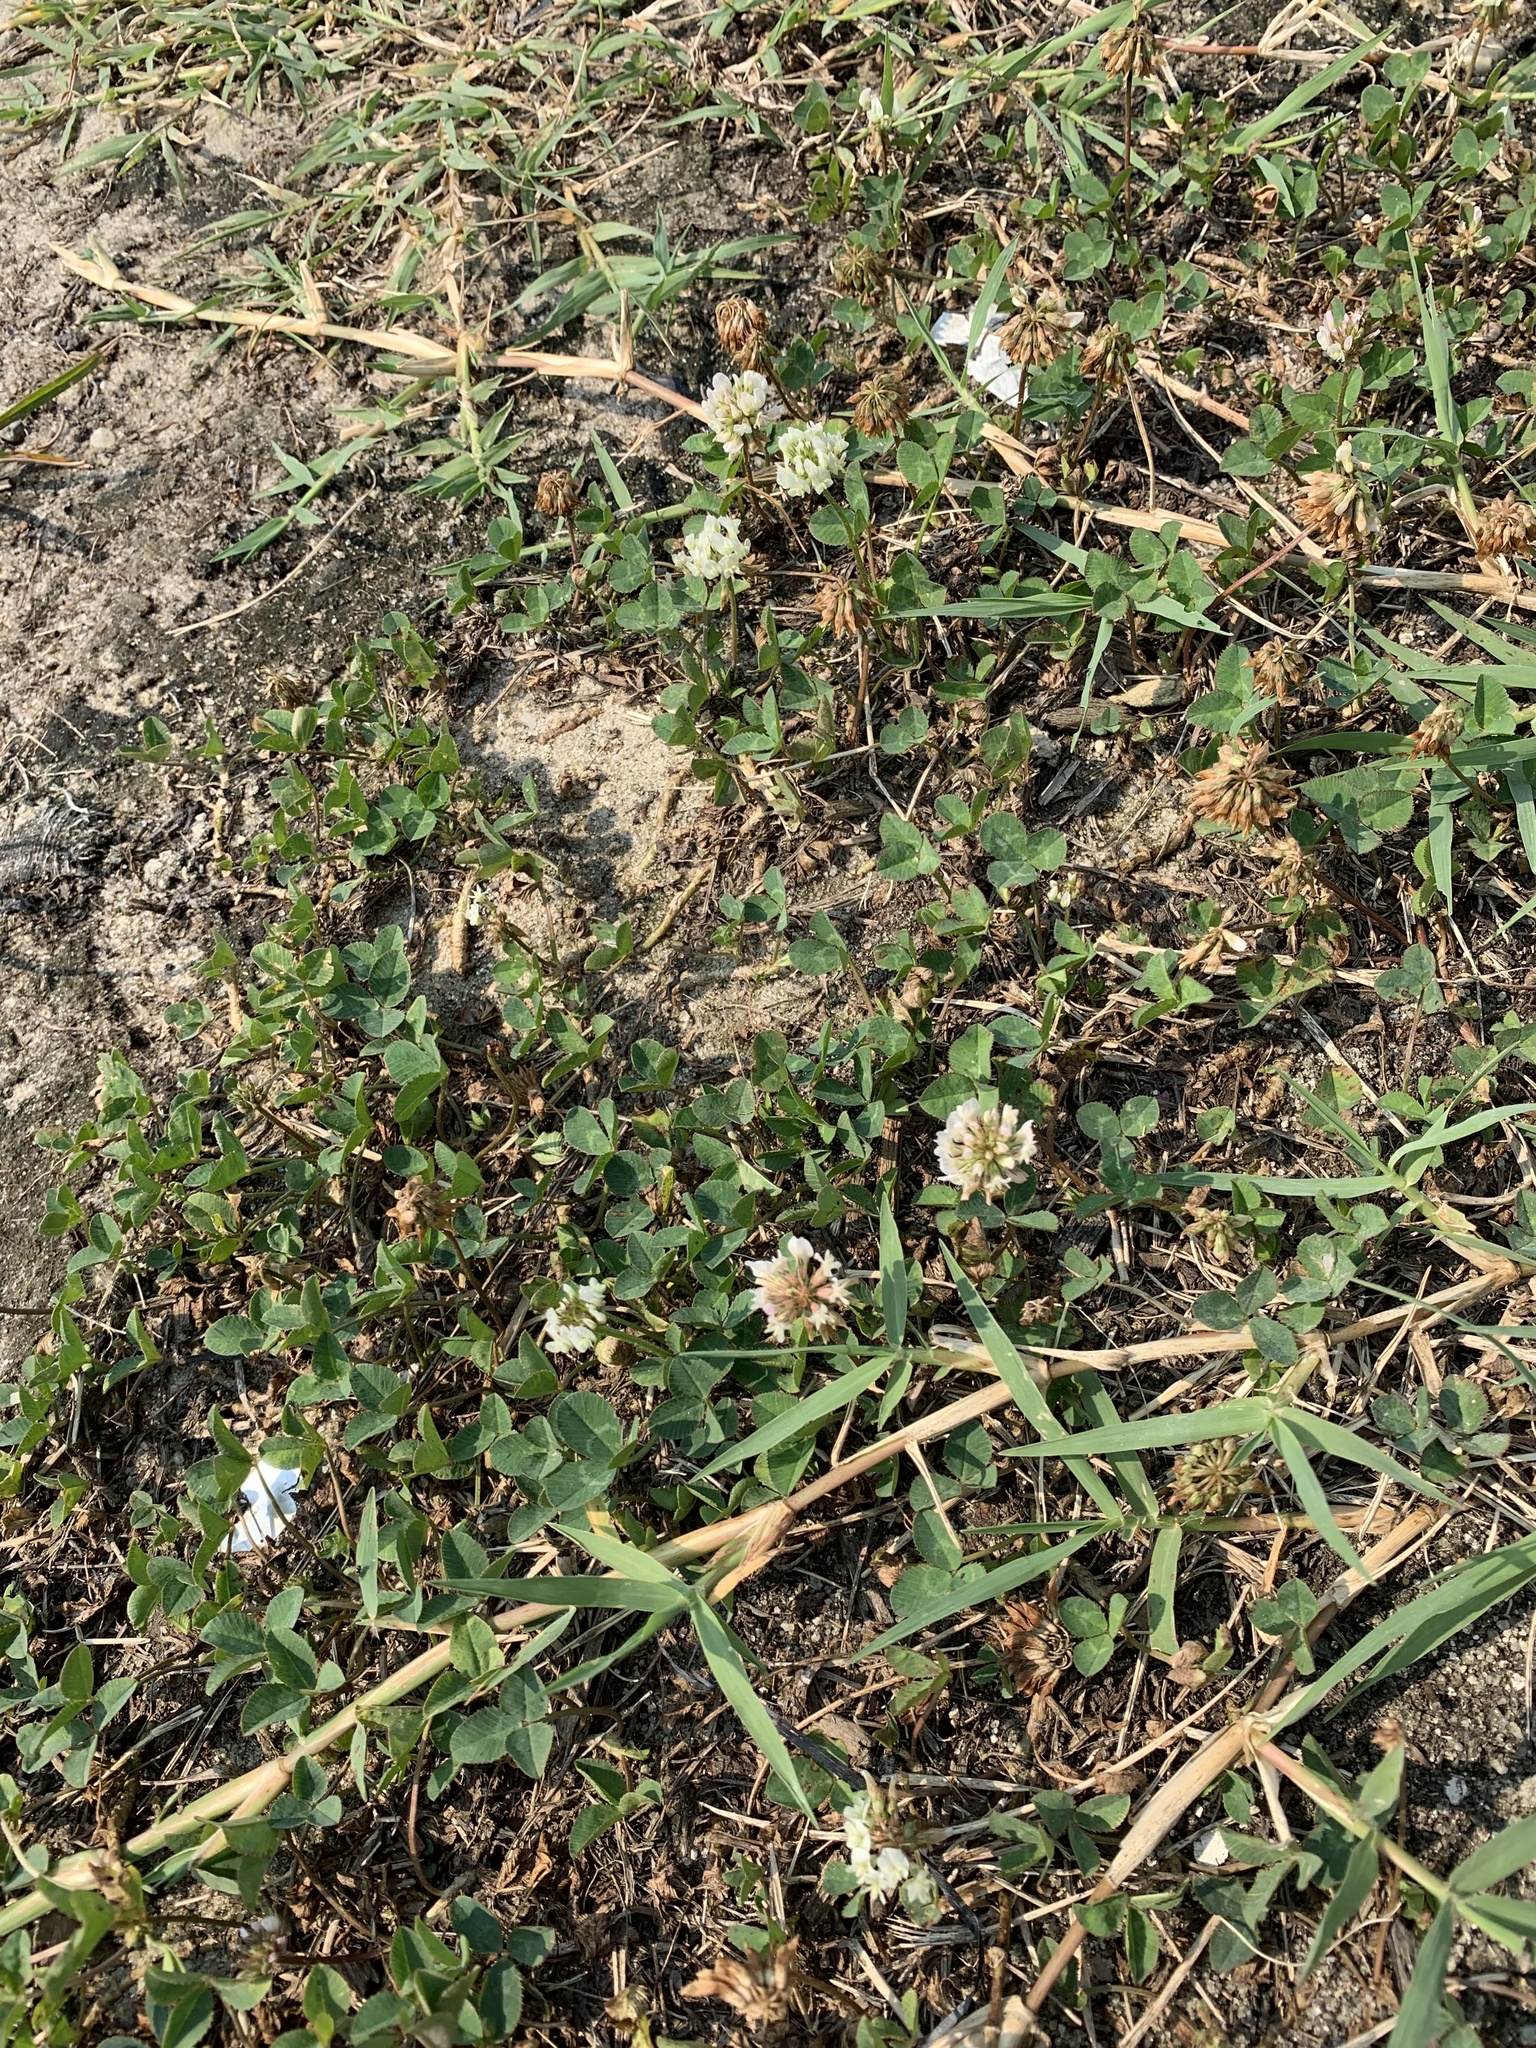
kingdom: Plantae
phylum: Tracheophyta
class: Magnoliopsida
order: Fabales
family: Fabaceae
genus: Trifolium
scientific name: Trifolium repens
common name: White clover
